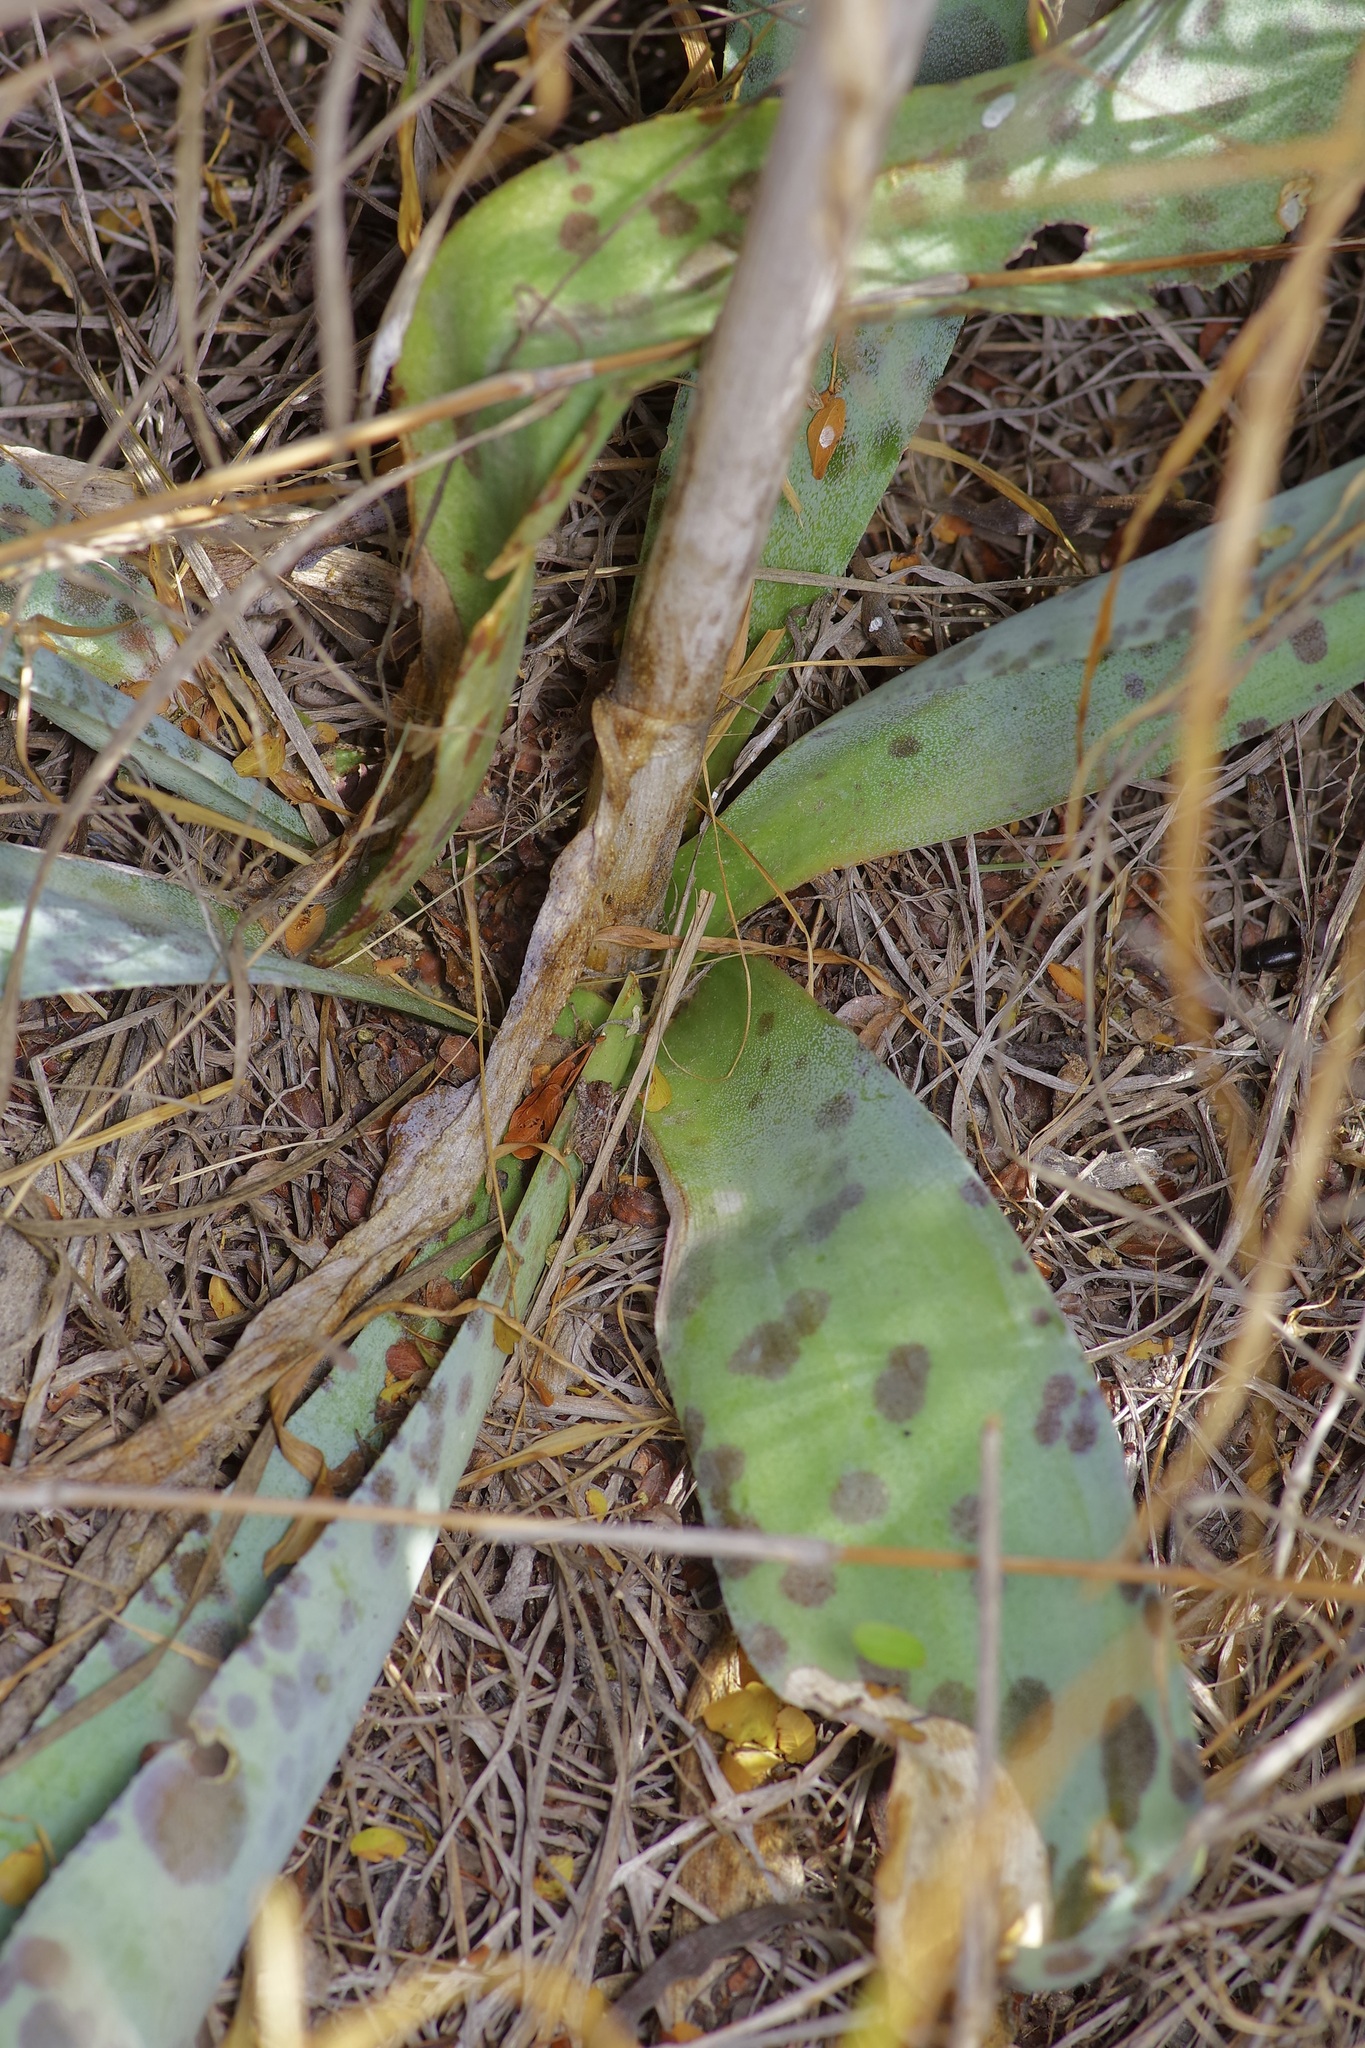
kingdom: Plantae
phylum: Tracheophyta
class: Liliopsida
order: Asparagales
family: Asparagaceae
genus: Agave
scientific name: Agave sileri
